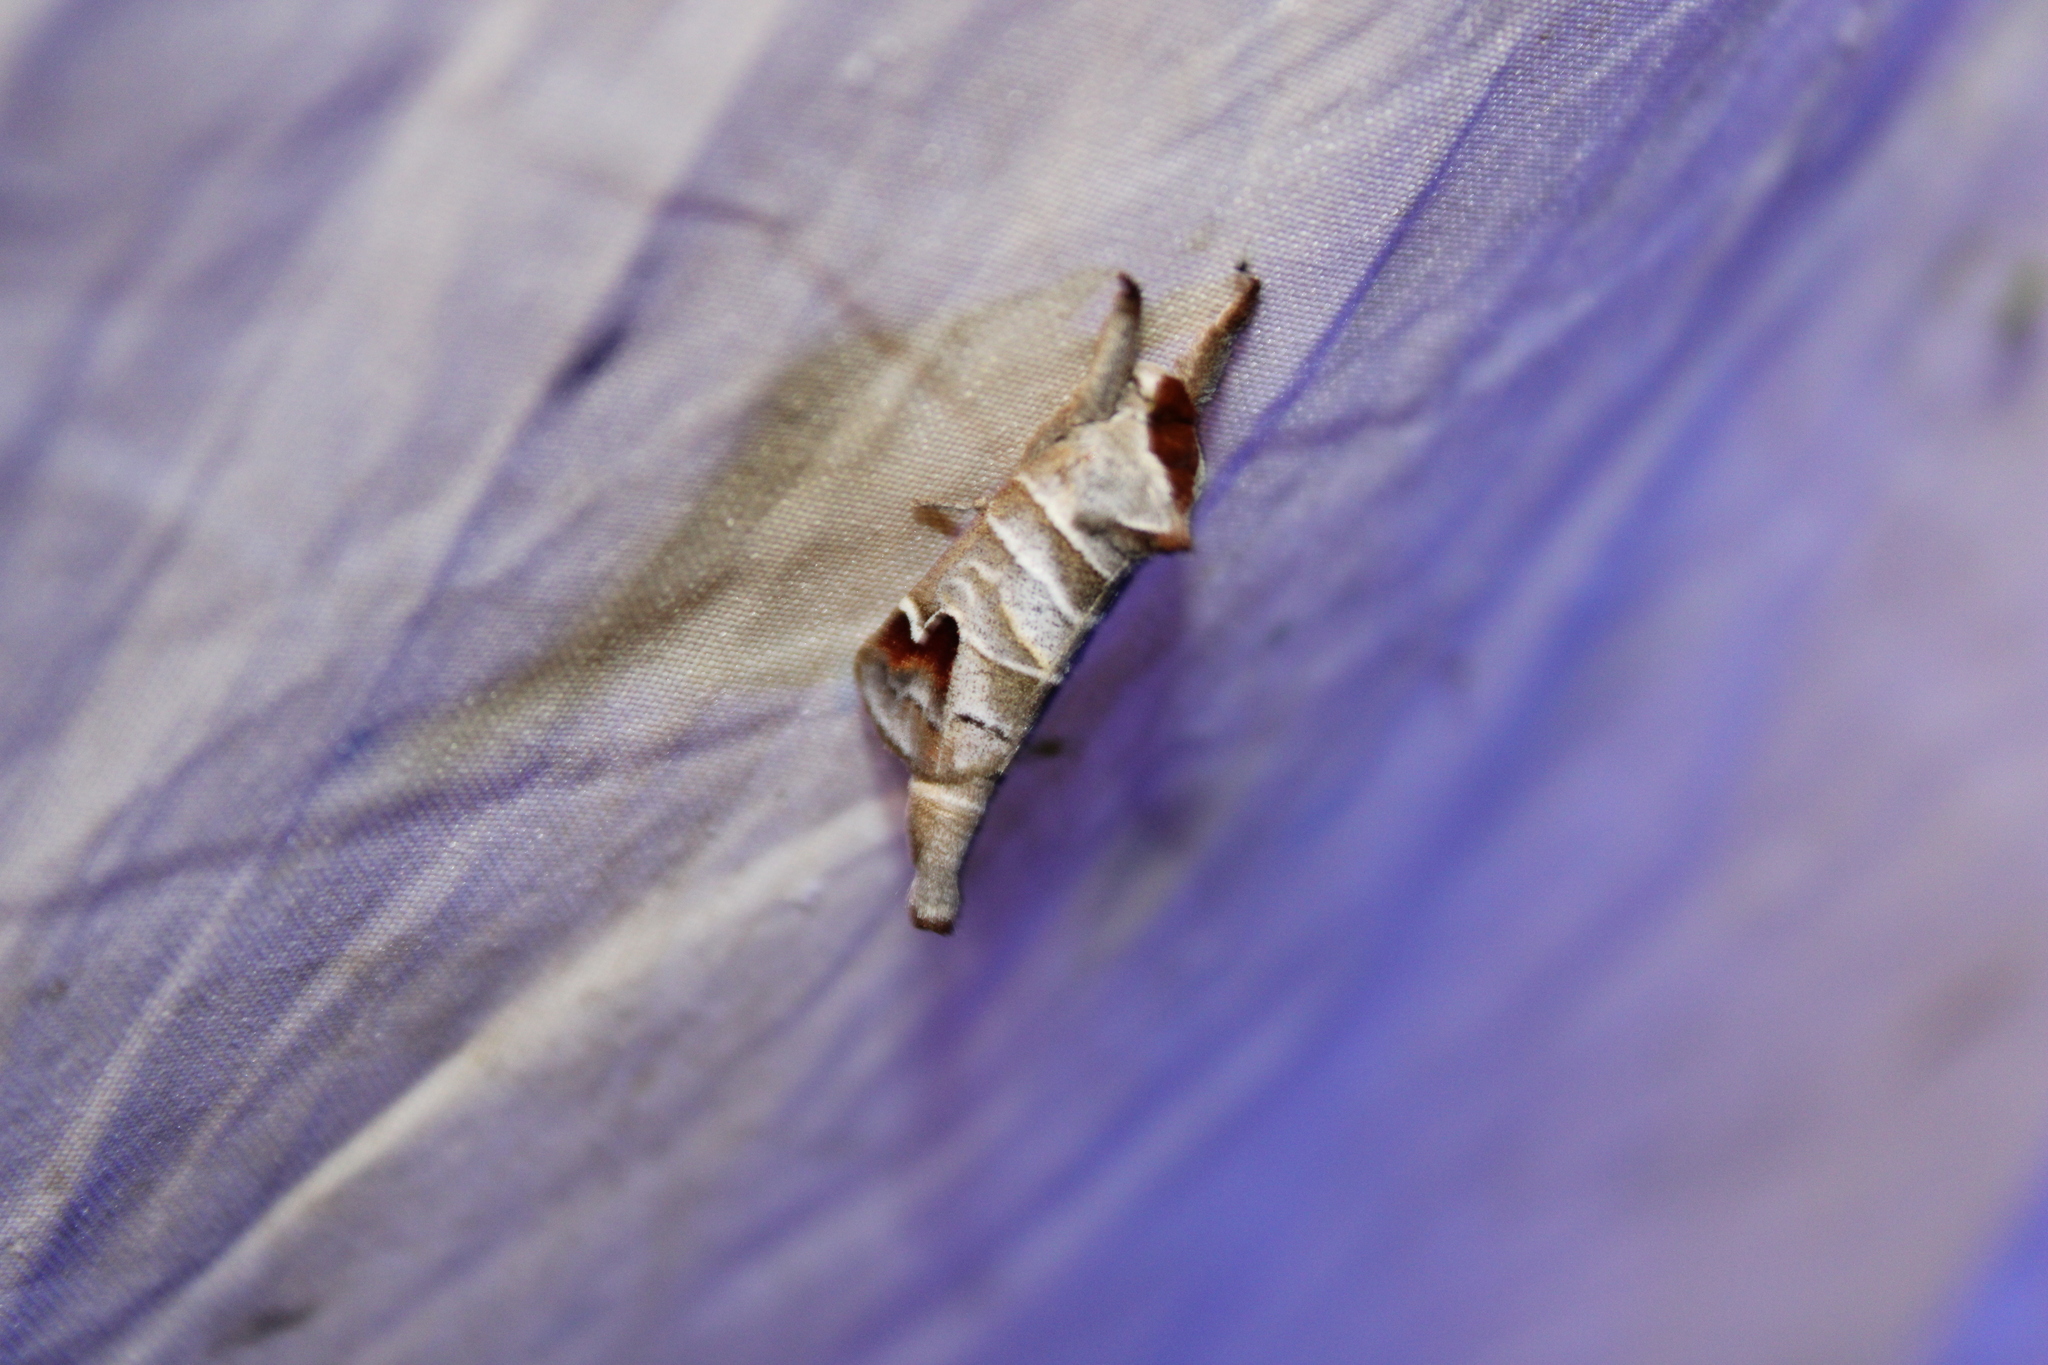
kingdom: Animalia
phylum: Arthropoda
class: Insecta
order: Lepidoptera
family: Notodontidae
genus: Clostera
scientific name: Clostera albosigma
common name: Sigmoid prominent
